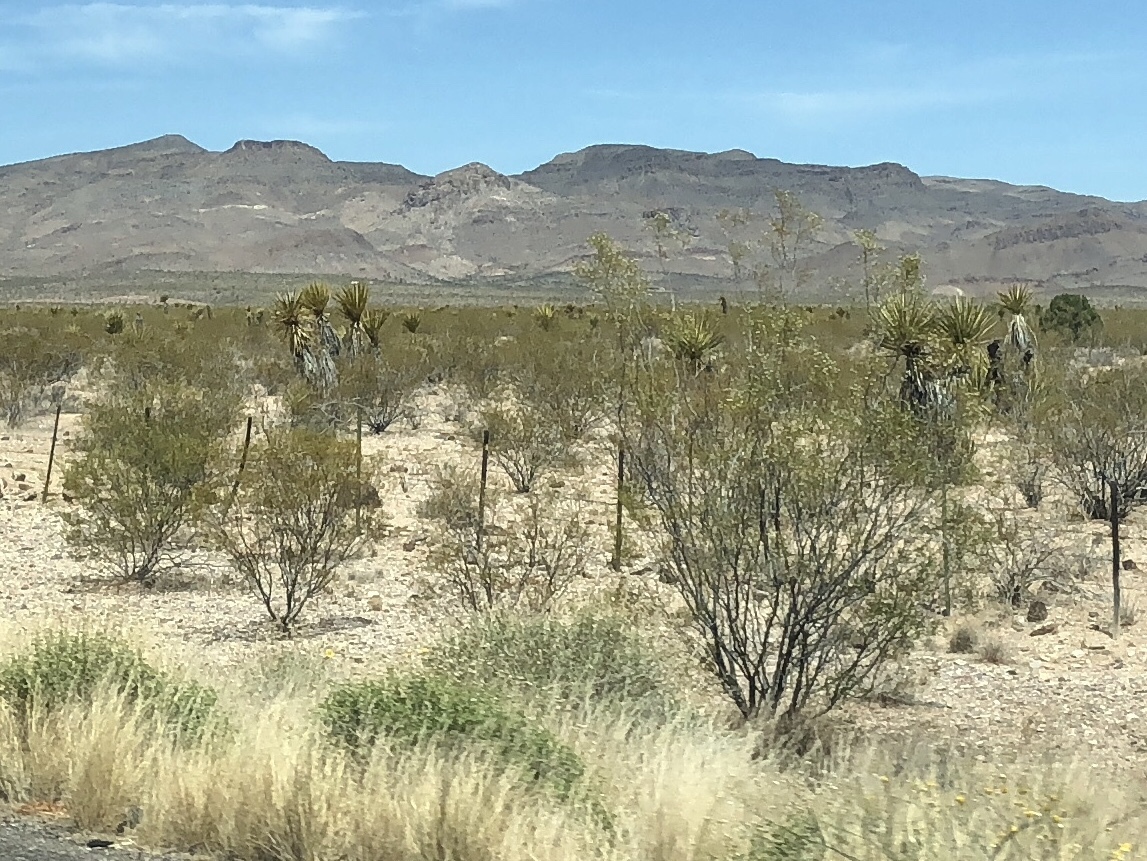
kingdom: Plantae
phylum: Tracheophyta
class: Magnoliopsida
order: Zygophyllales
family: Zygophyllaceae
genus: Larrea
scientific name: Larrea tridentata
